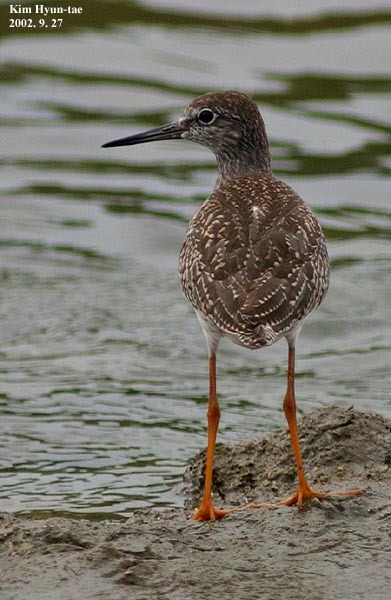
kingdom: Animalia
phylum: Chordata
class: Aves
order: Charadriiformes
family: Scolopacidae
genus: Tringa
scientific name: Tringa totanus
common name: Common redshank
